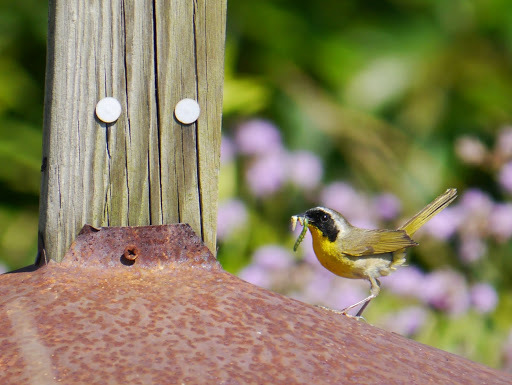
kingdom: Animalia
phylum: Chordata
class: Aves
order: Passeriformes
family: Parulidae
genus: Geothlypis
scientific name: Geothlypis trichas
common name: Common yellowthroat
